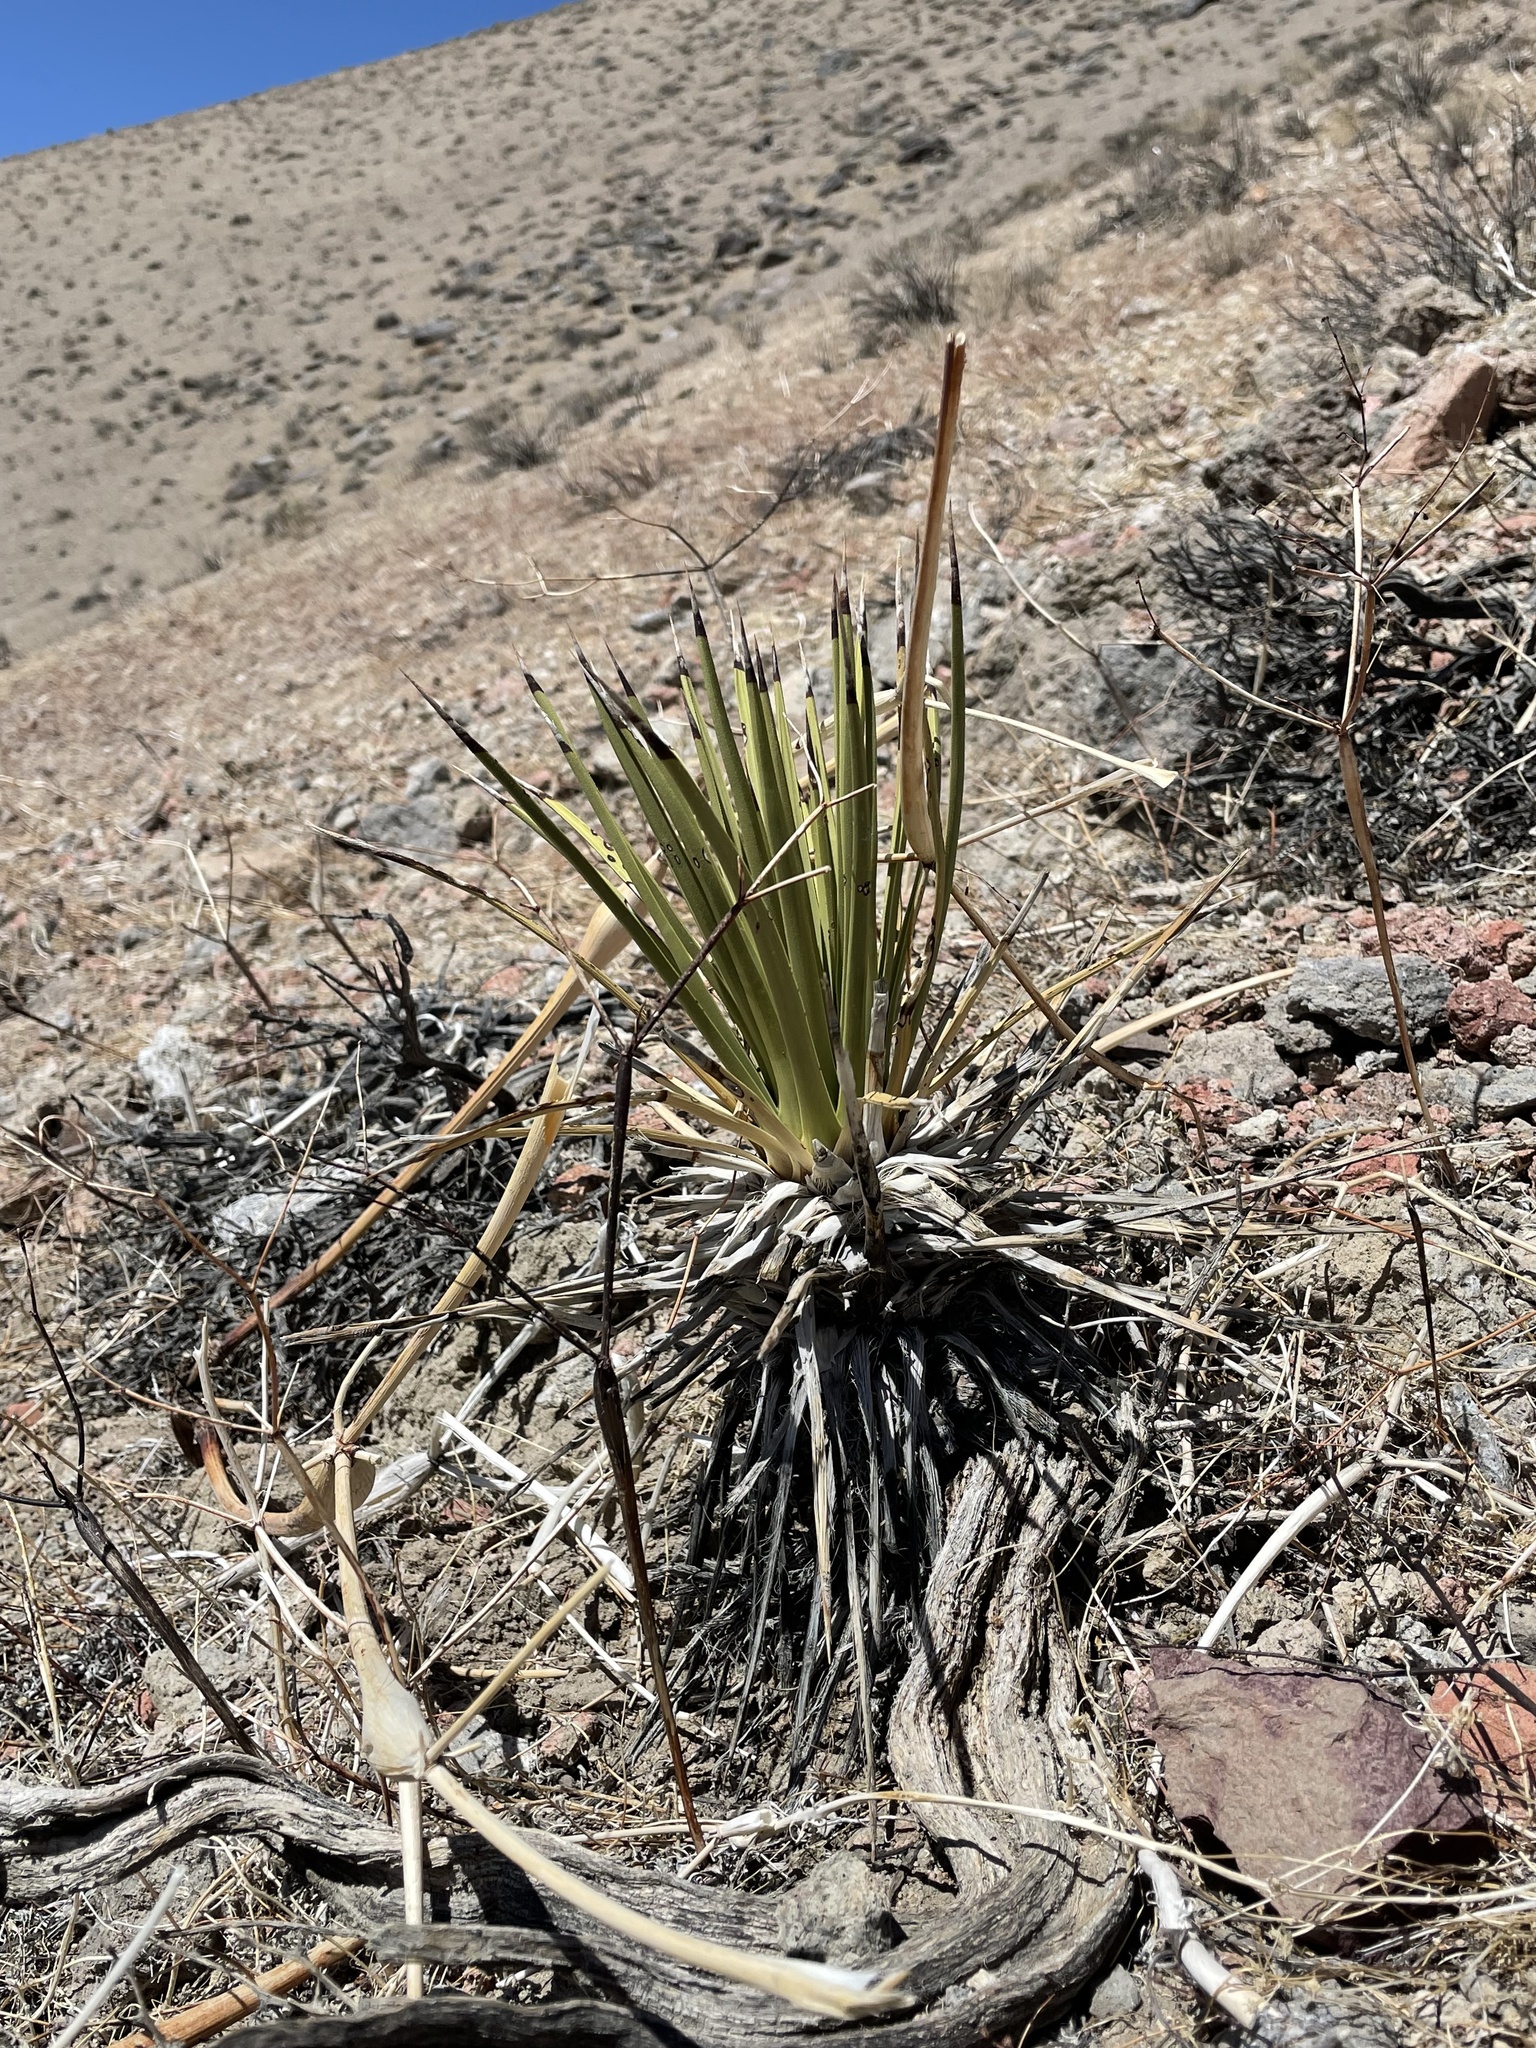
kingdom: Plantae
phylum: Tracheophyta
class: Liliopsida
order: Asparagales
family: Asparagaceae
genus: Yucca
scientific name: Yucca brevifolia
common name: Joshua tree
